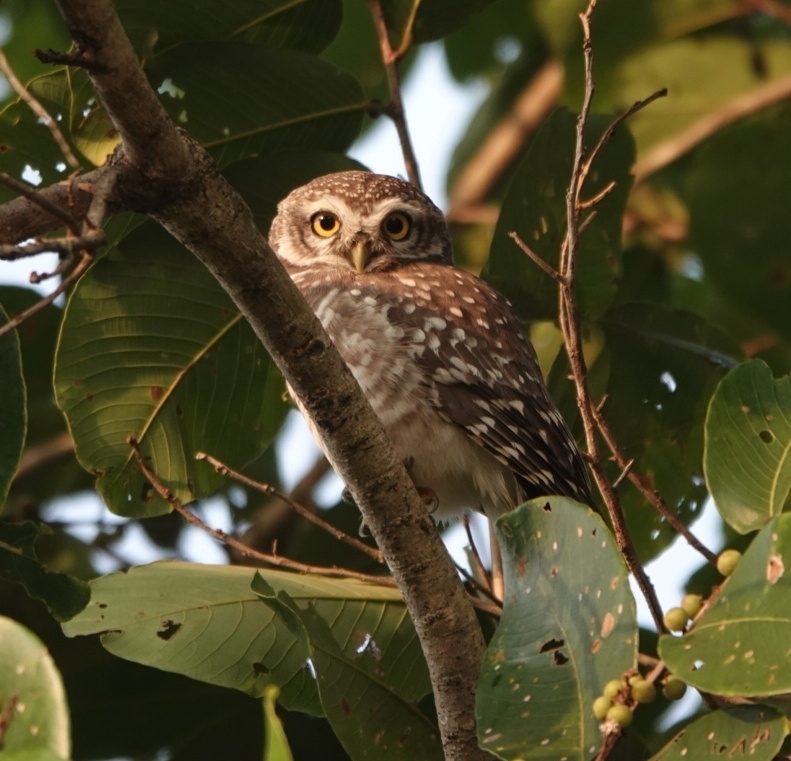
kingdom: Animalia
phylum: Chordata
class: Aves
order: Strigiformes
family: Strigidae
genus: Athene
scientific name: Athene brama
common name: Spotted owlet
